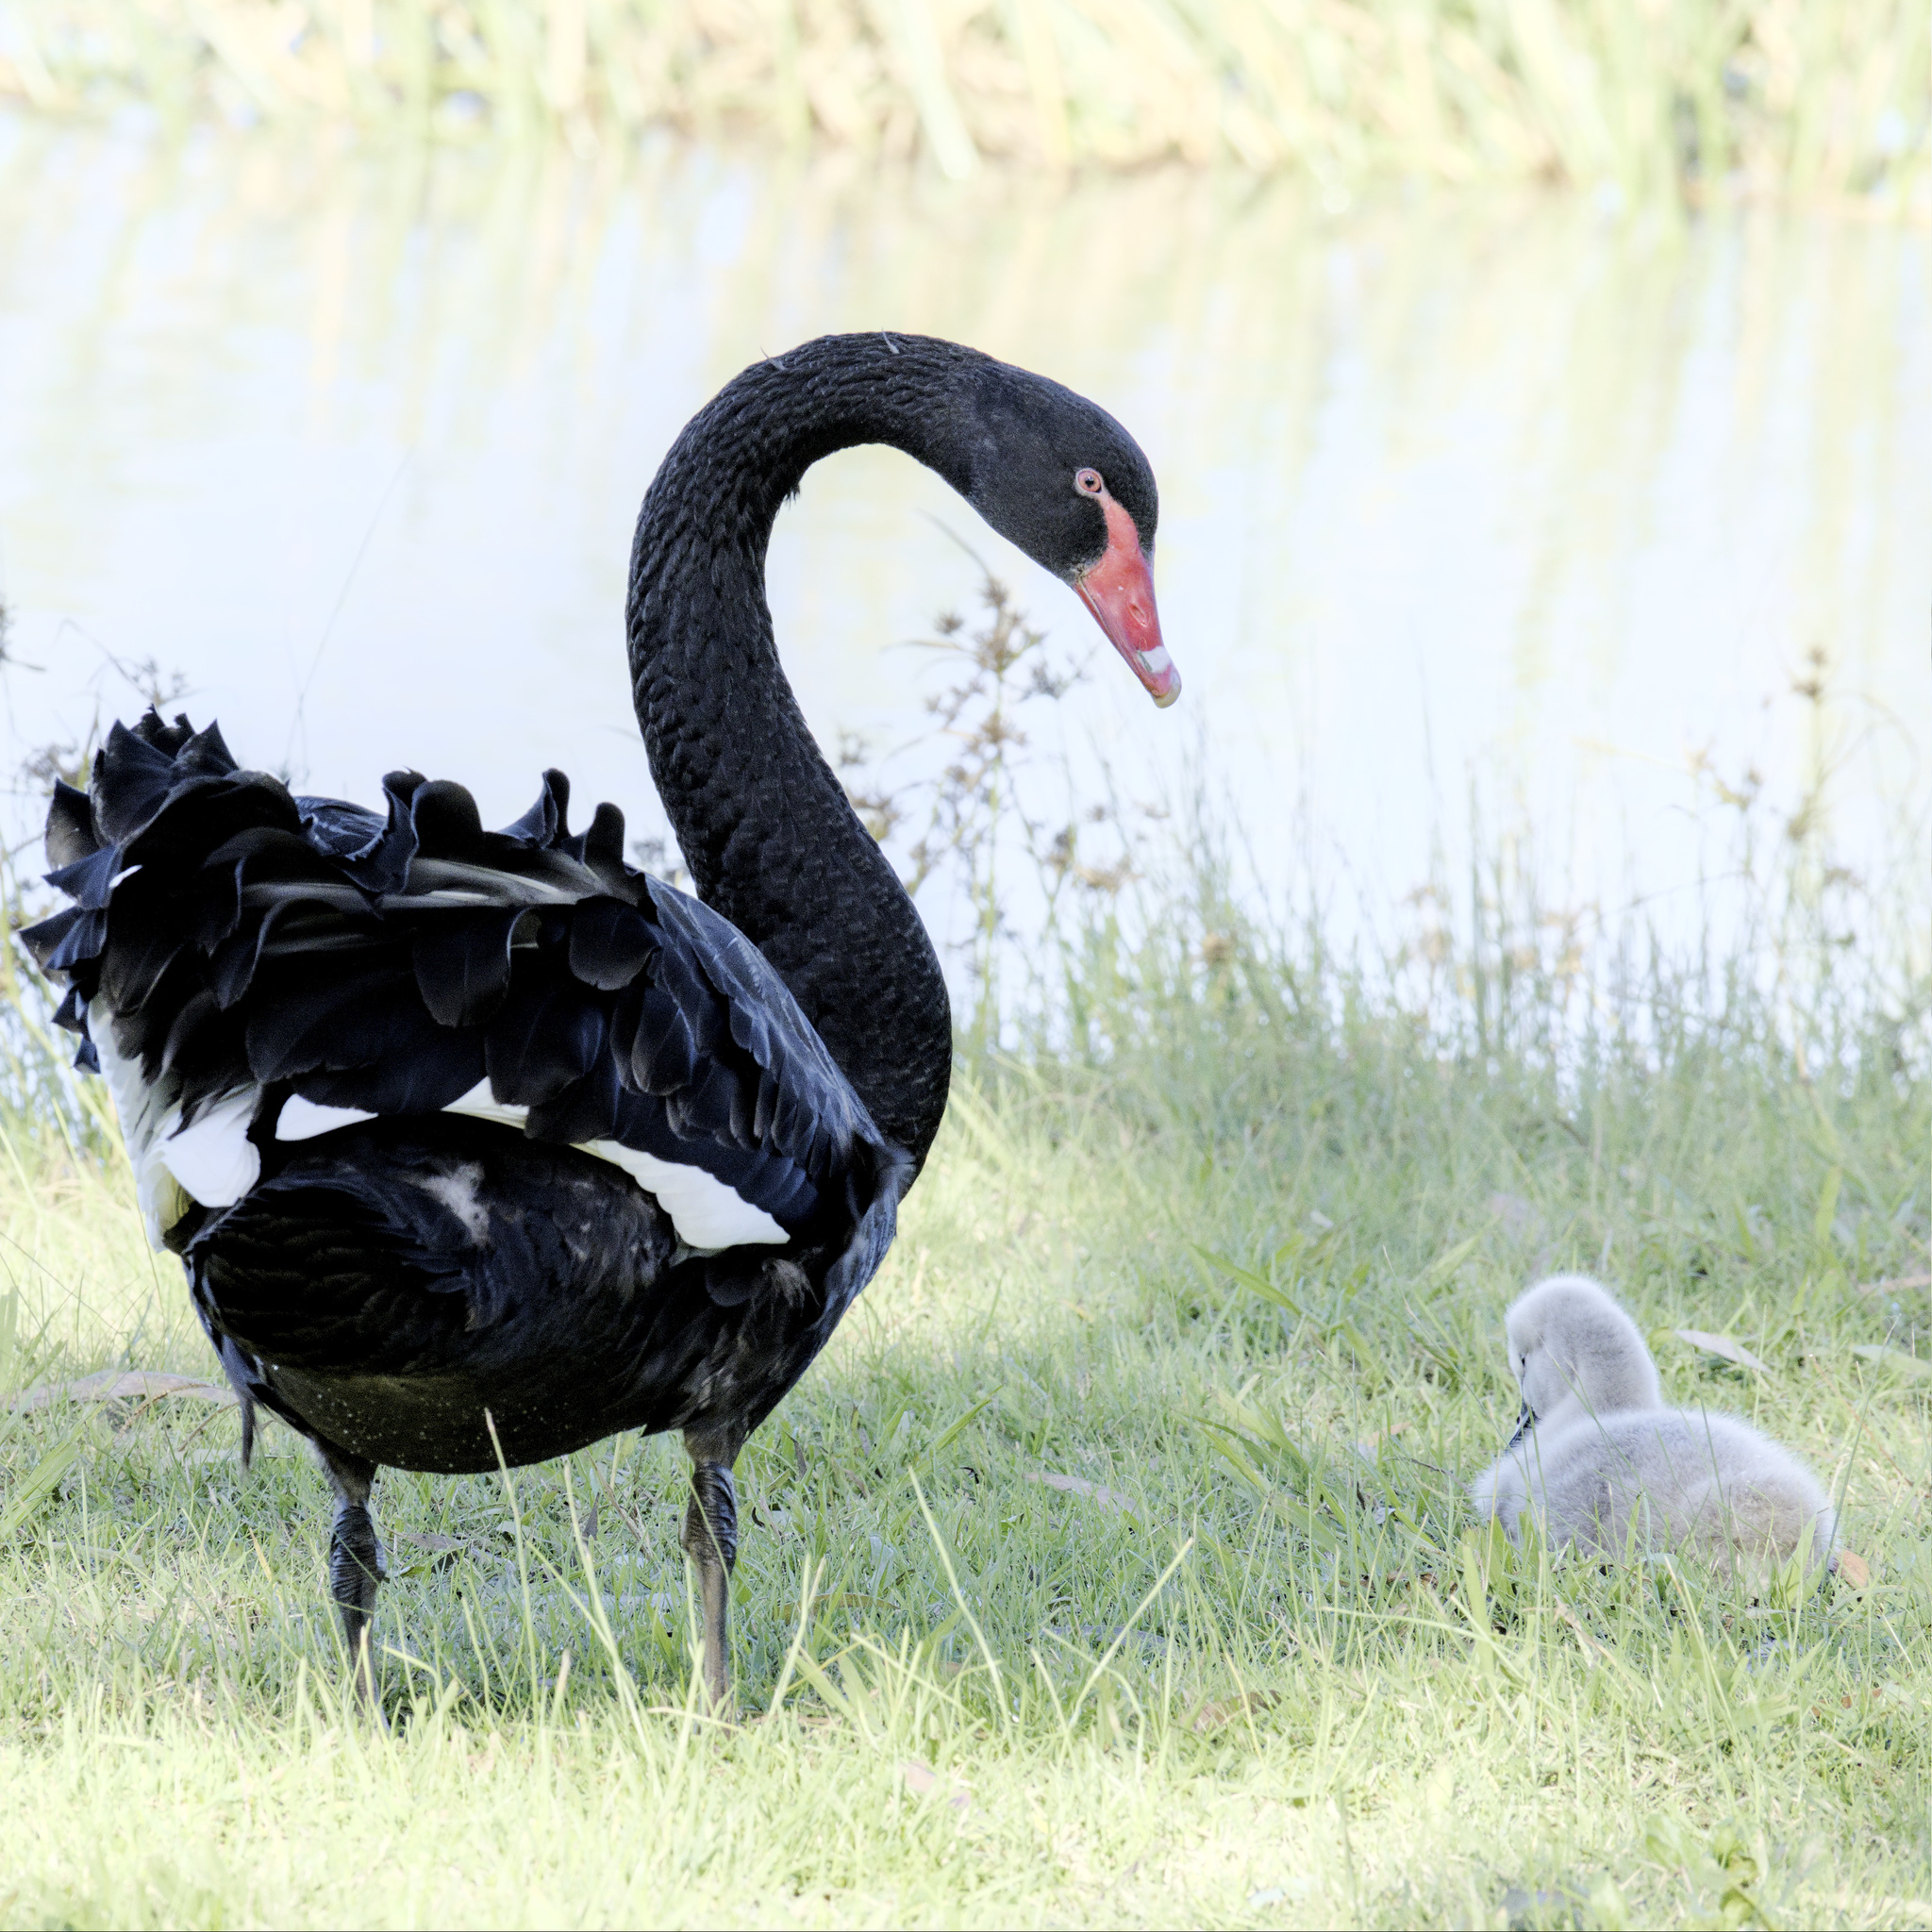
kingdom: Animalia
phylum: Chordata
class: Aves
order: Anseriformes
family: Anatidae
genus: Cygnus
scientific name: Cygnus atratus
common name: Black swan
